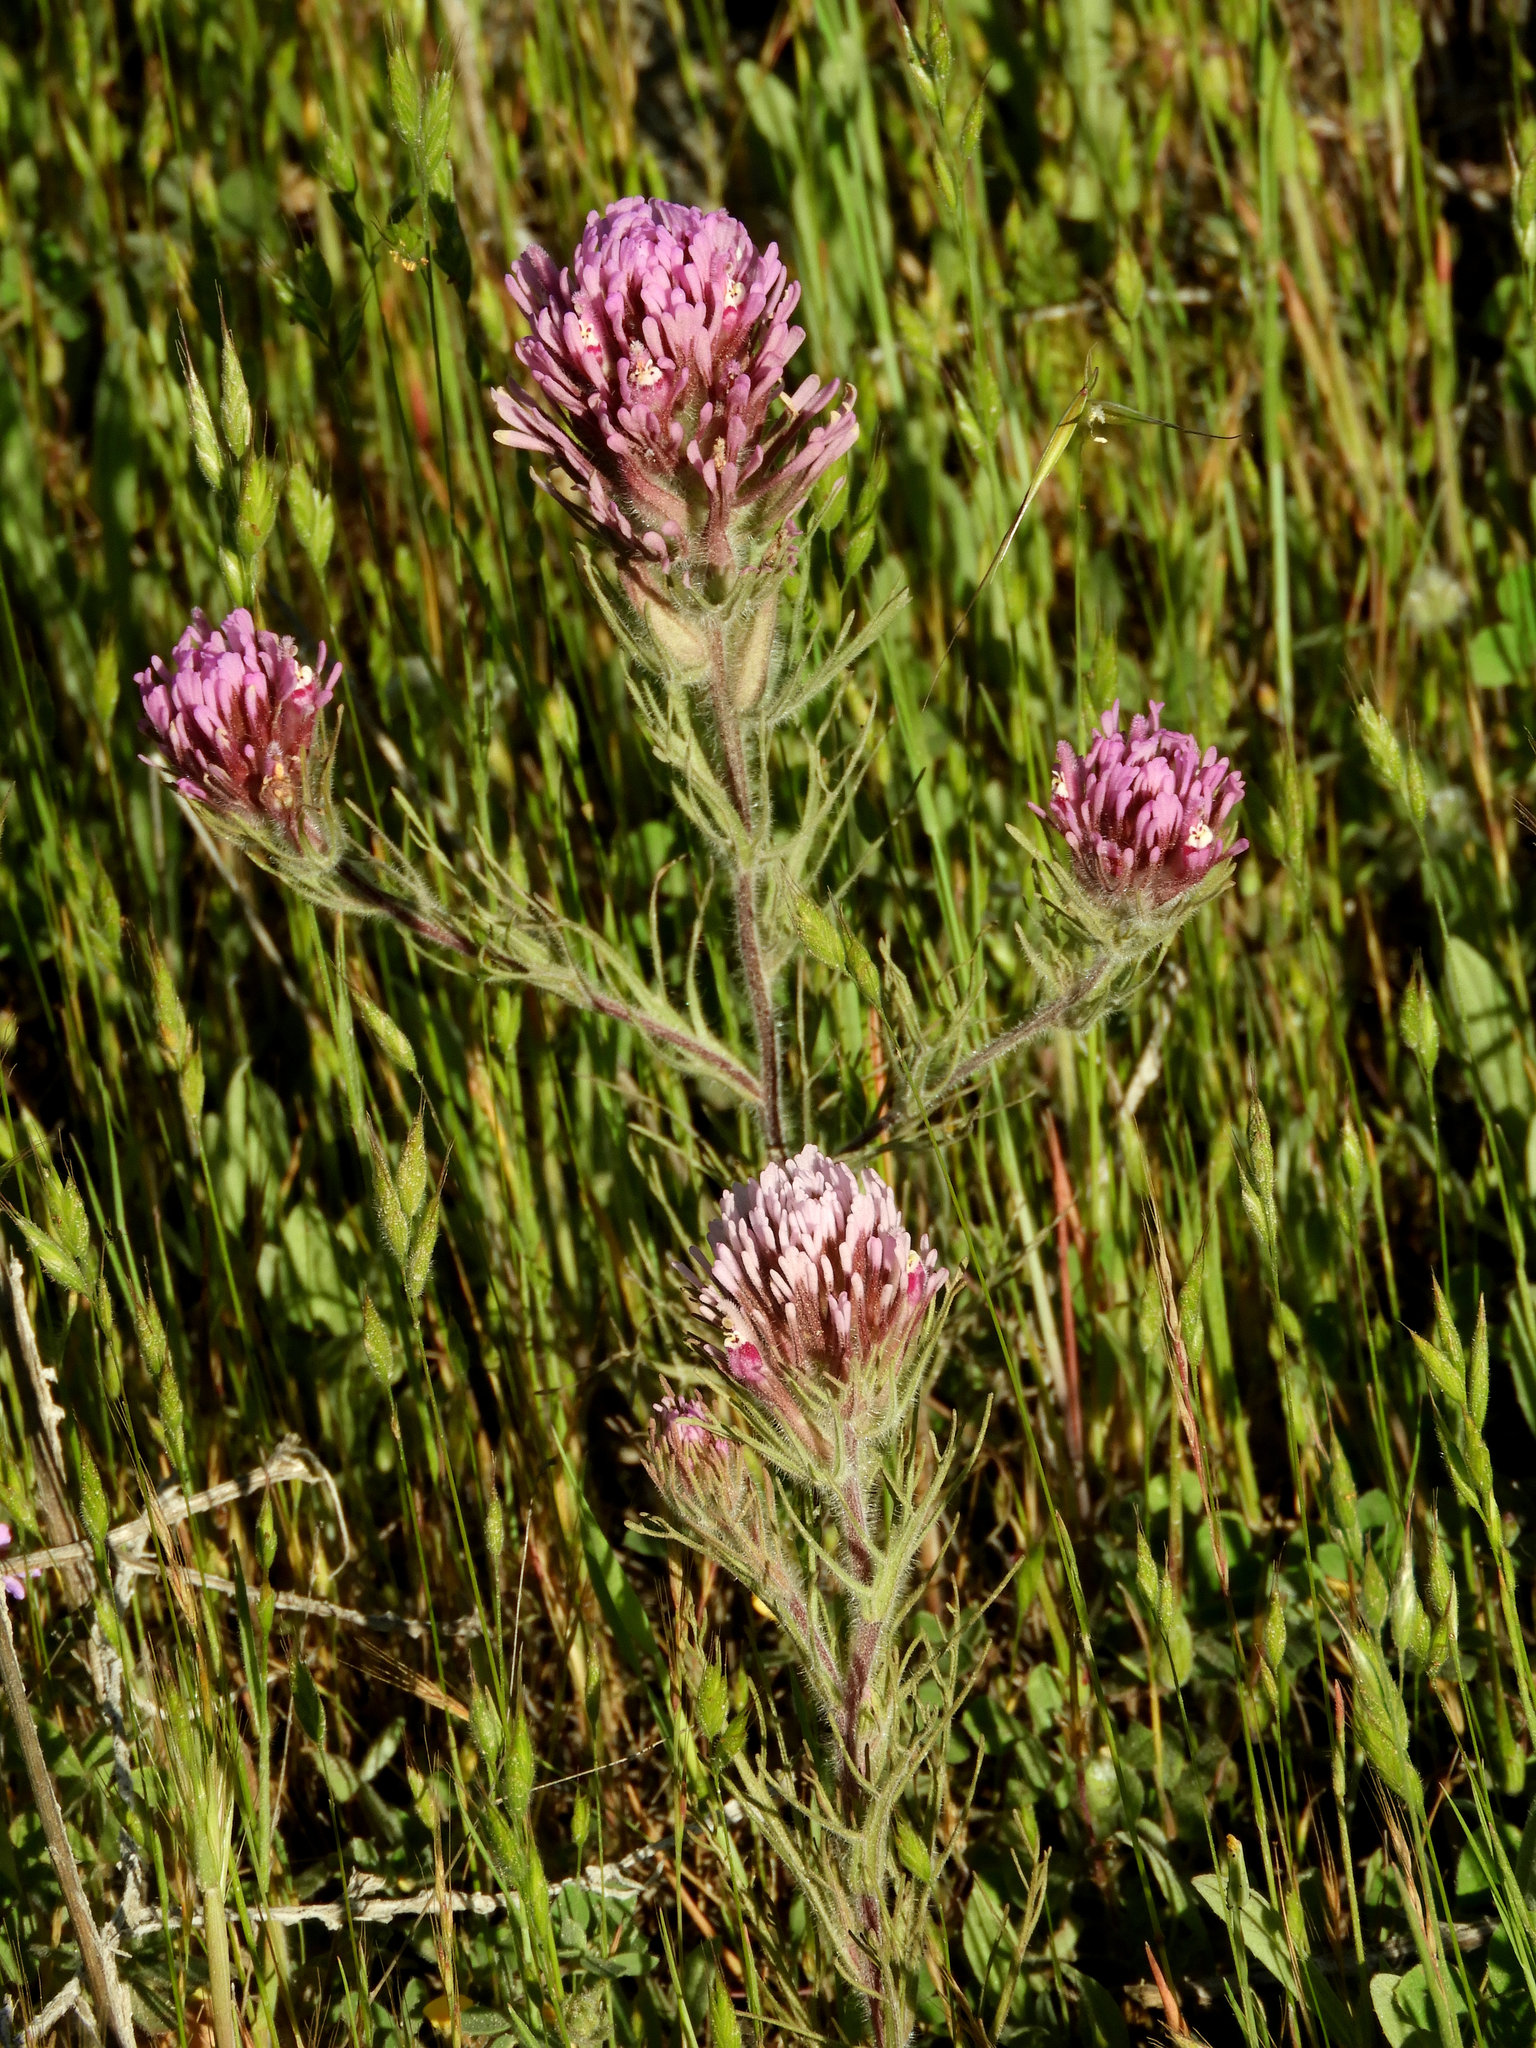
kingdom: Plantae
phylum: Tracheophyta
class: Magnoliopsida
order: Lamiales
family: Orobanchaceae
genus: Castilleja
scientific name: Castilleja exserta
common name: Purple owl-clover
